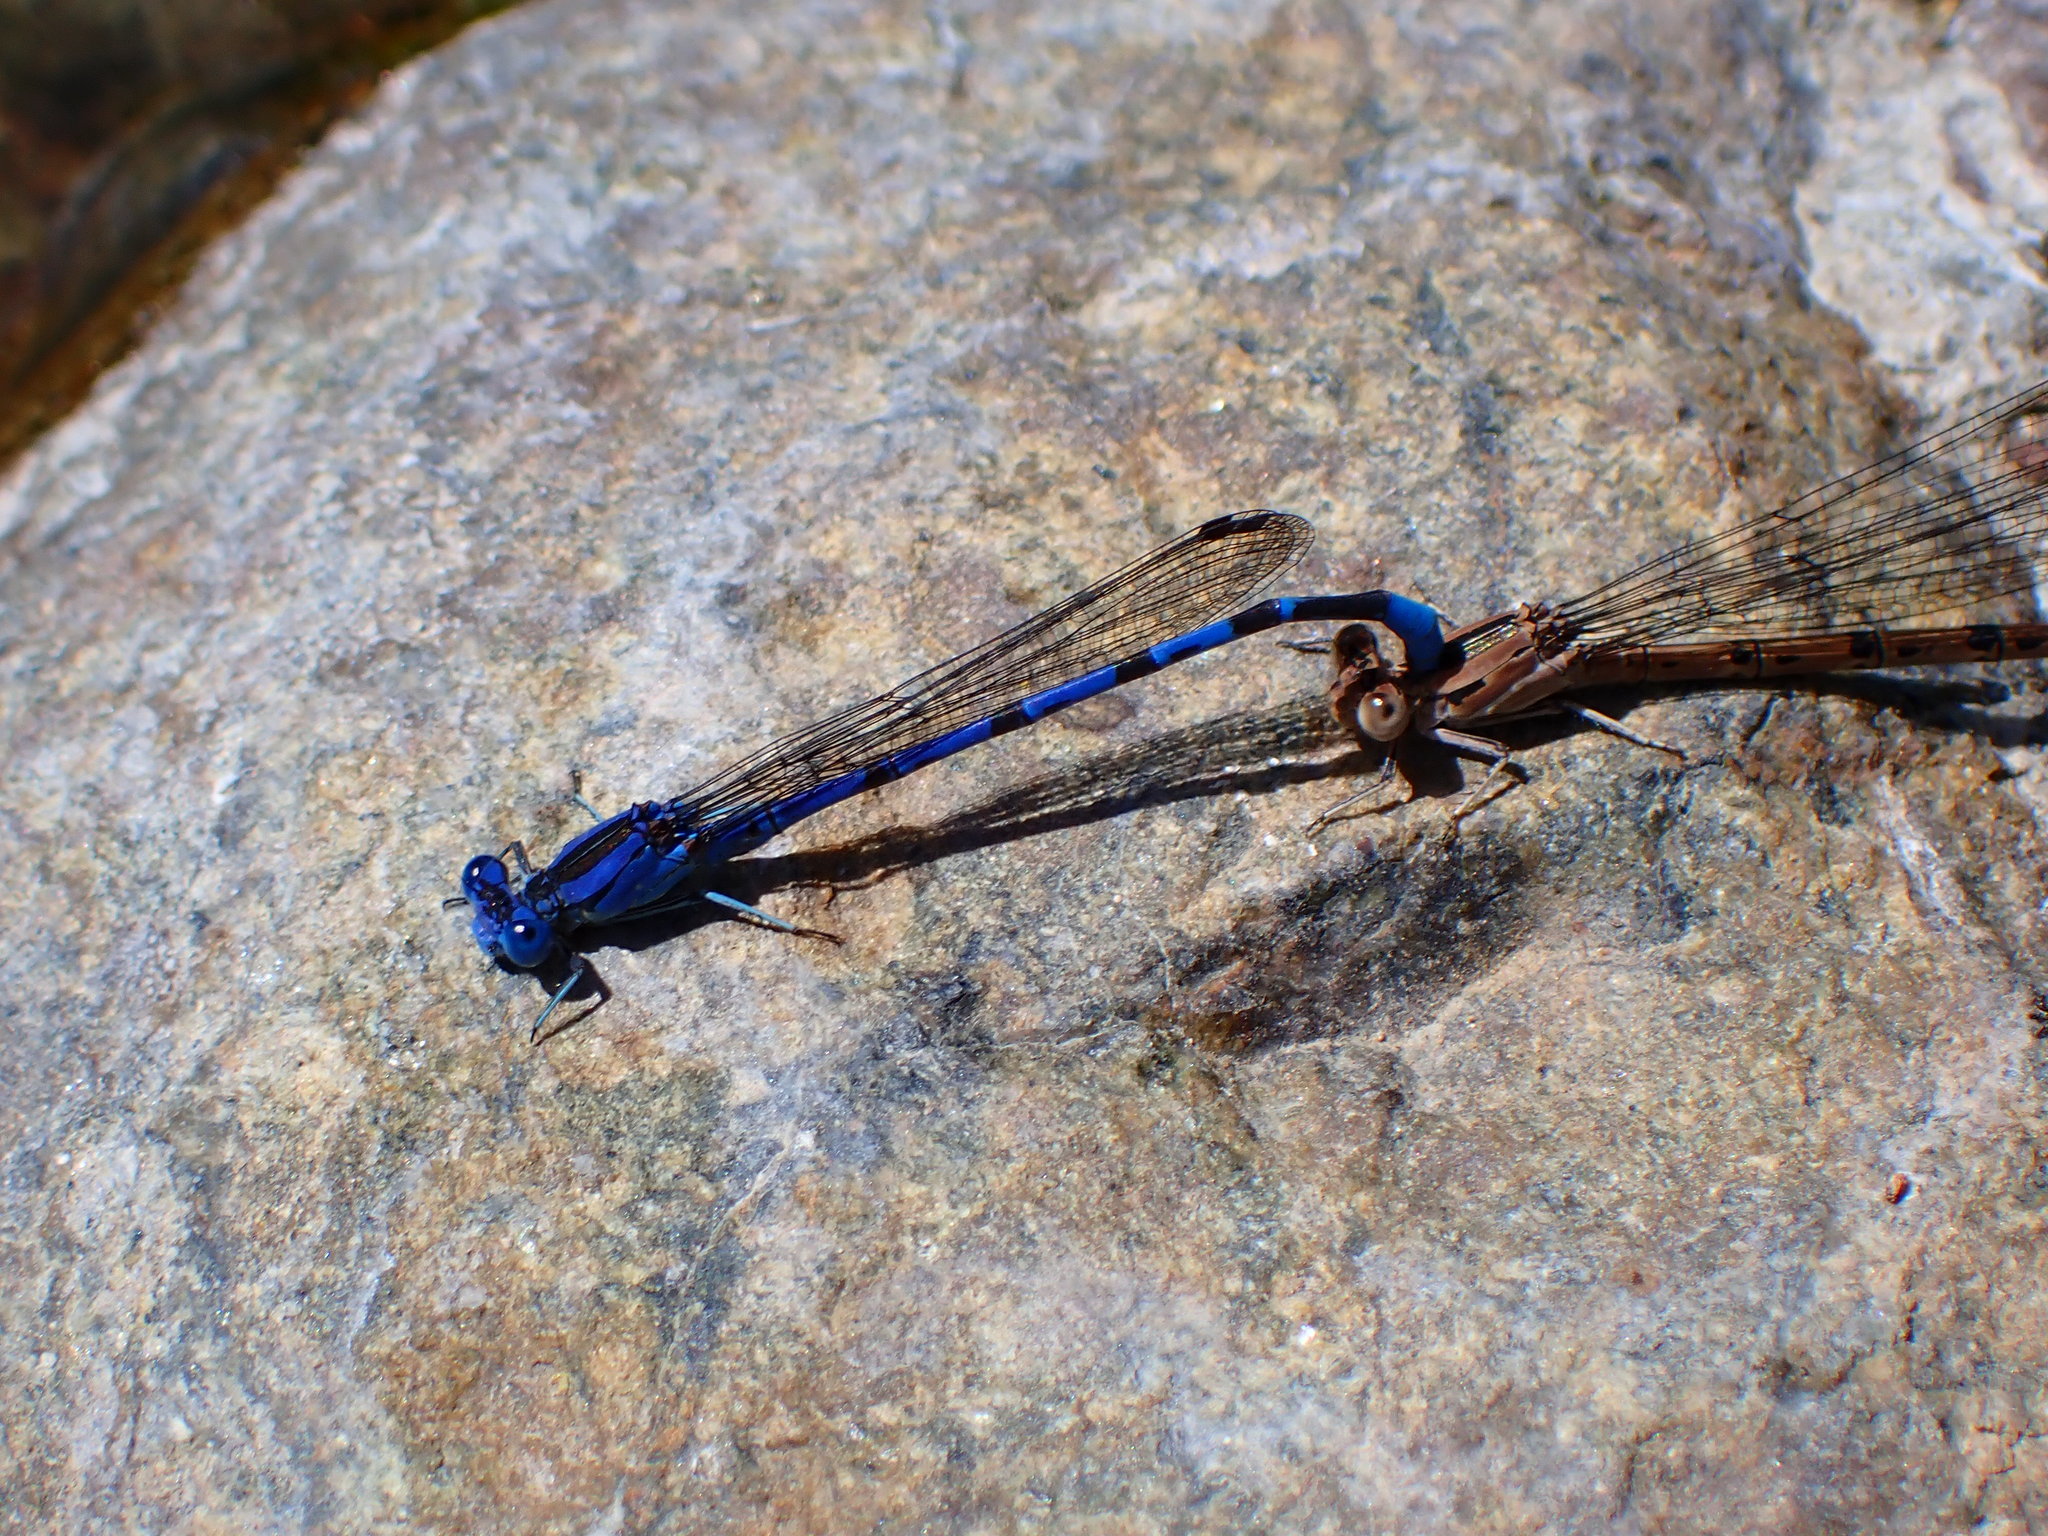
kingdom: Animalia
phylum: Arthropoda
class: Insecta
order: Odonata
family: Coenagrionidae
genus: Argia
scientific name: Argia vivida
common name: Vivid dancer
